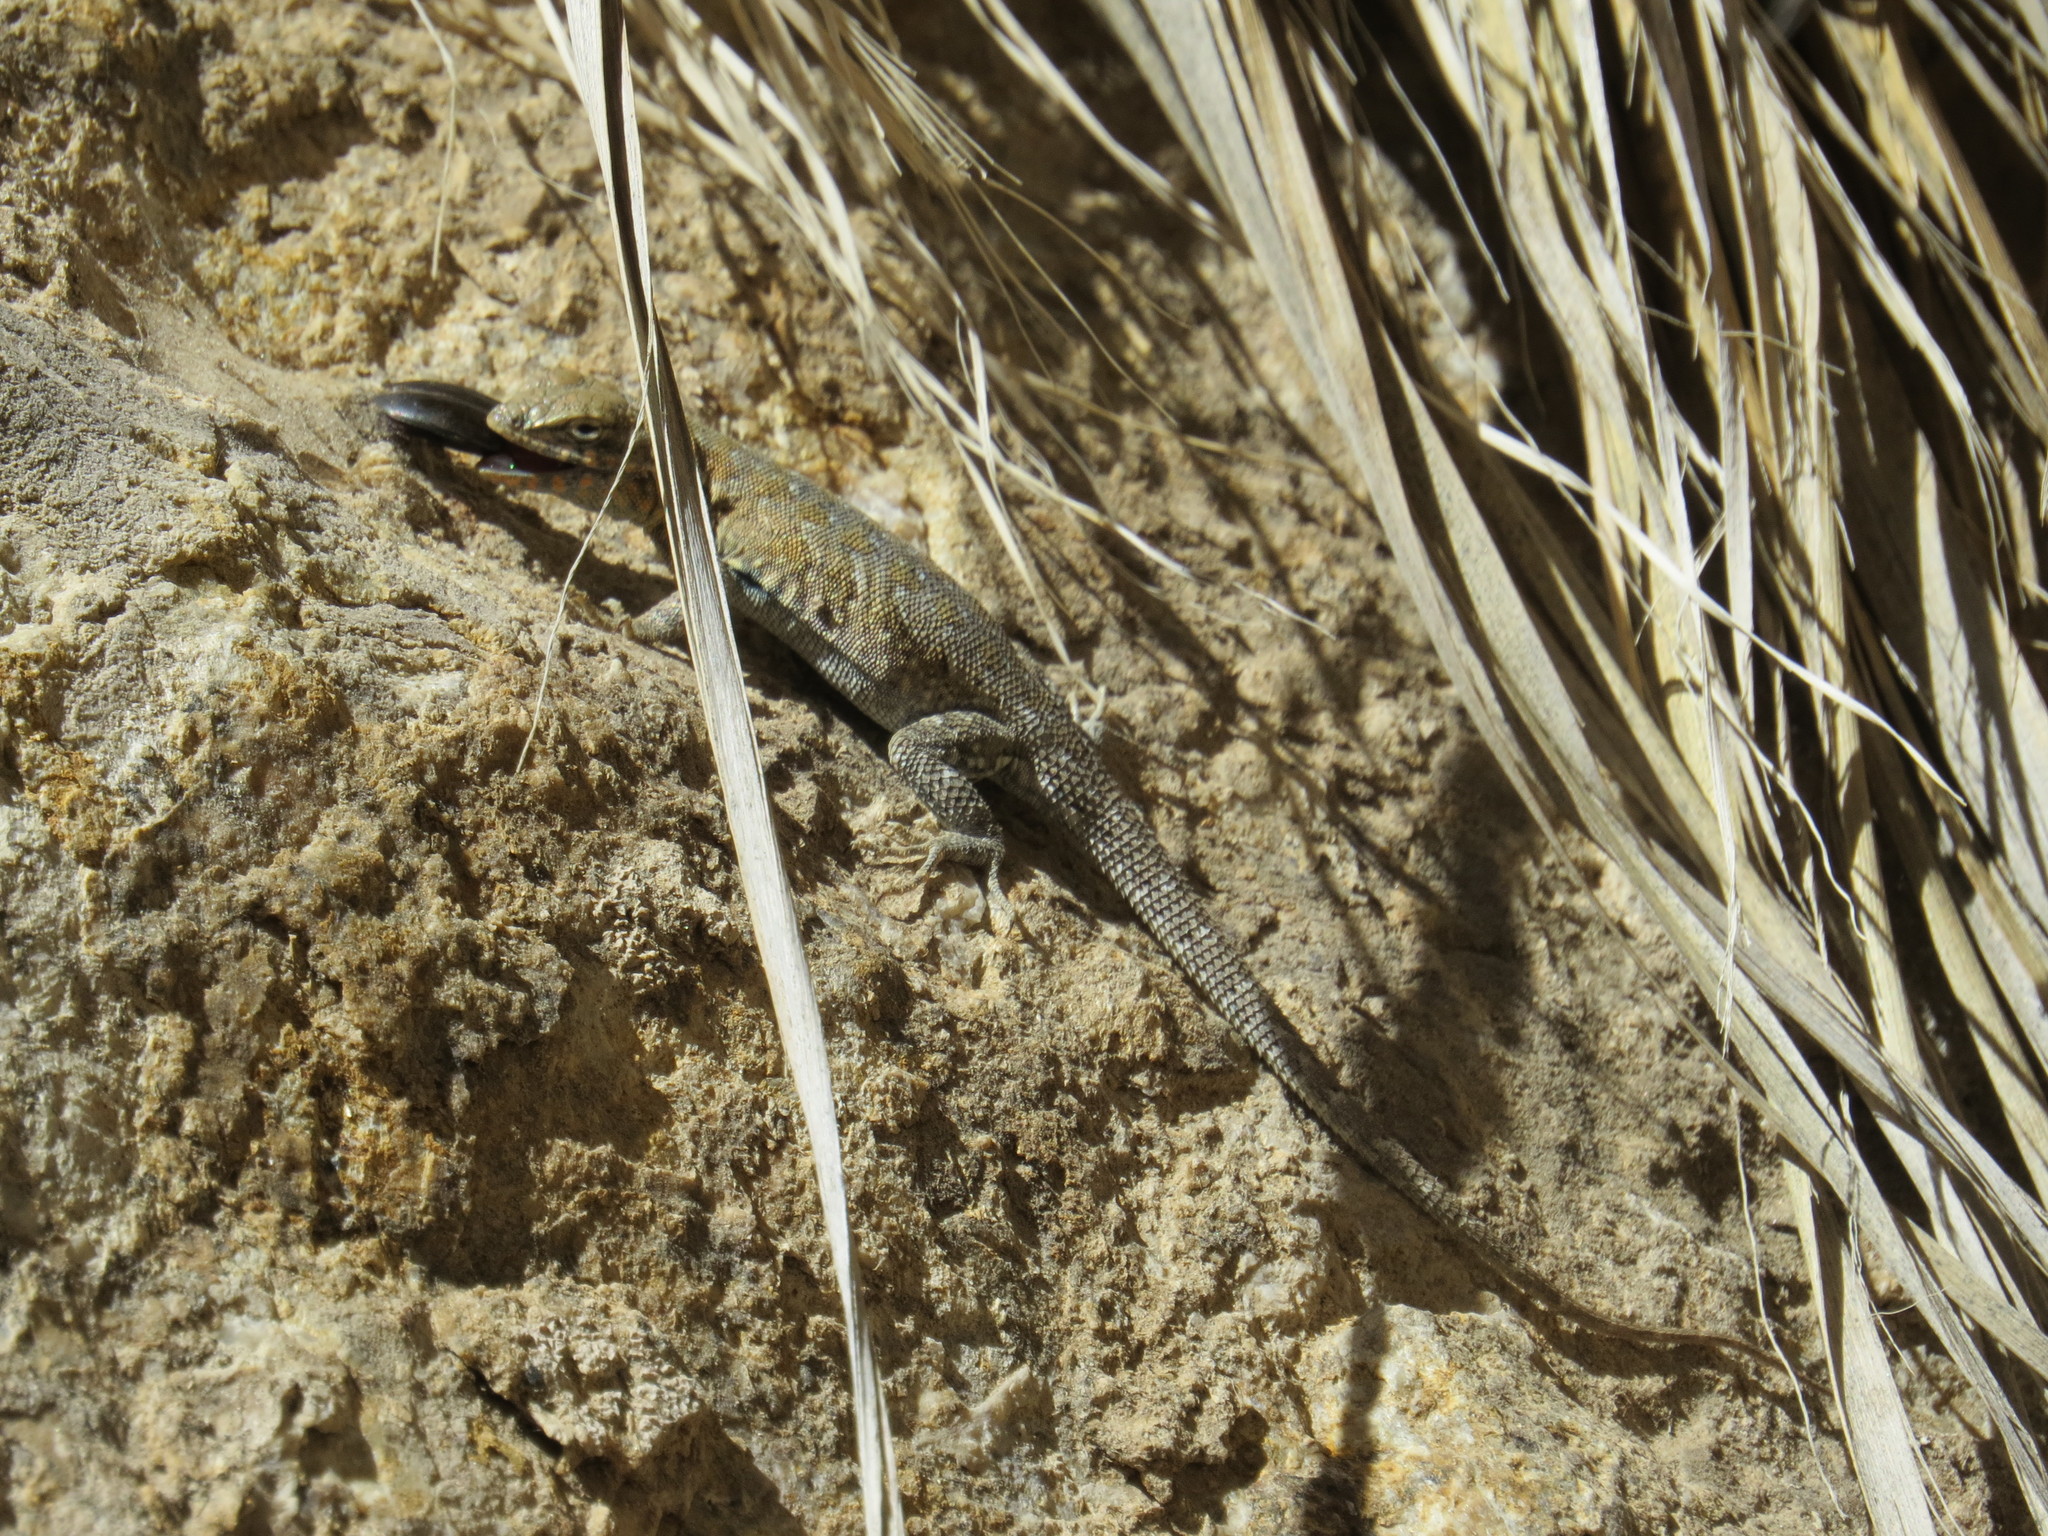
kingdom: Animalia
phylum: Chordata
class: Squamata
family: Phrynosomatidae
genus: Uta
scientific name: Uta stansburiana
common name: Side-blotched lizard
